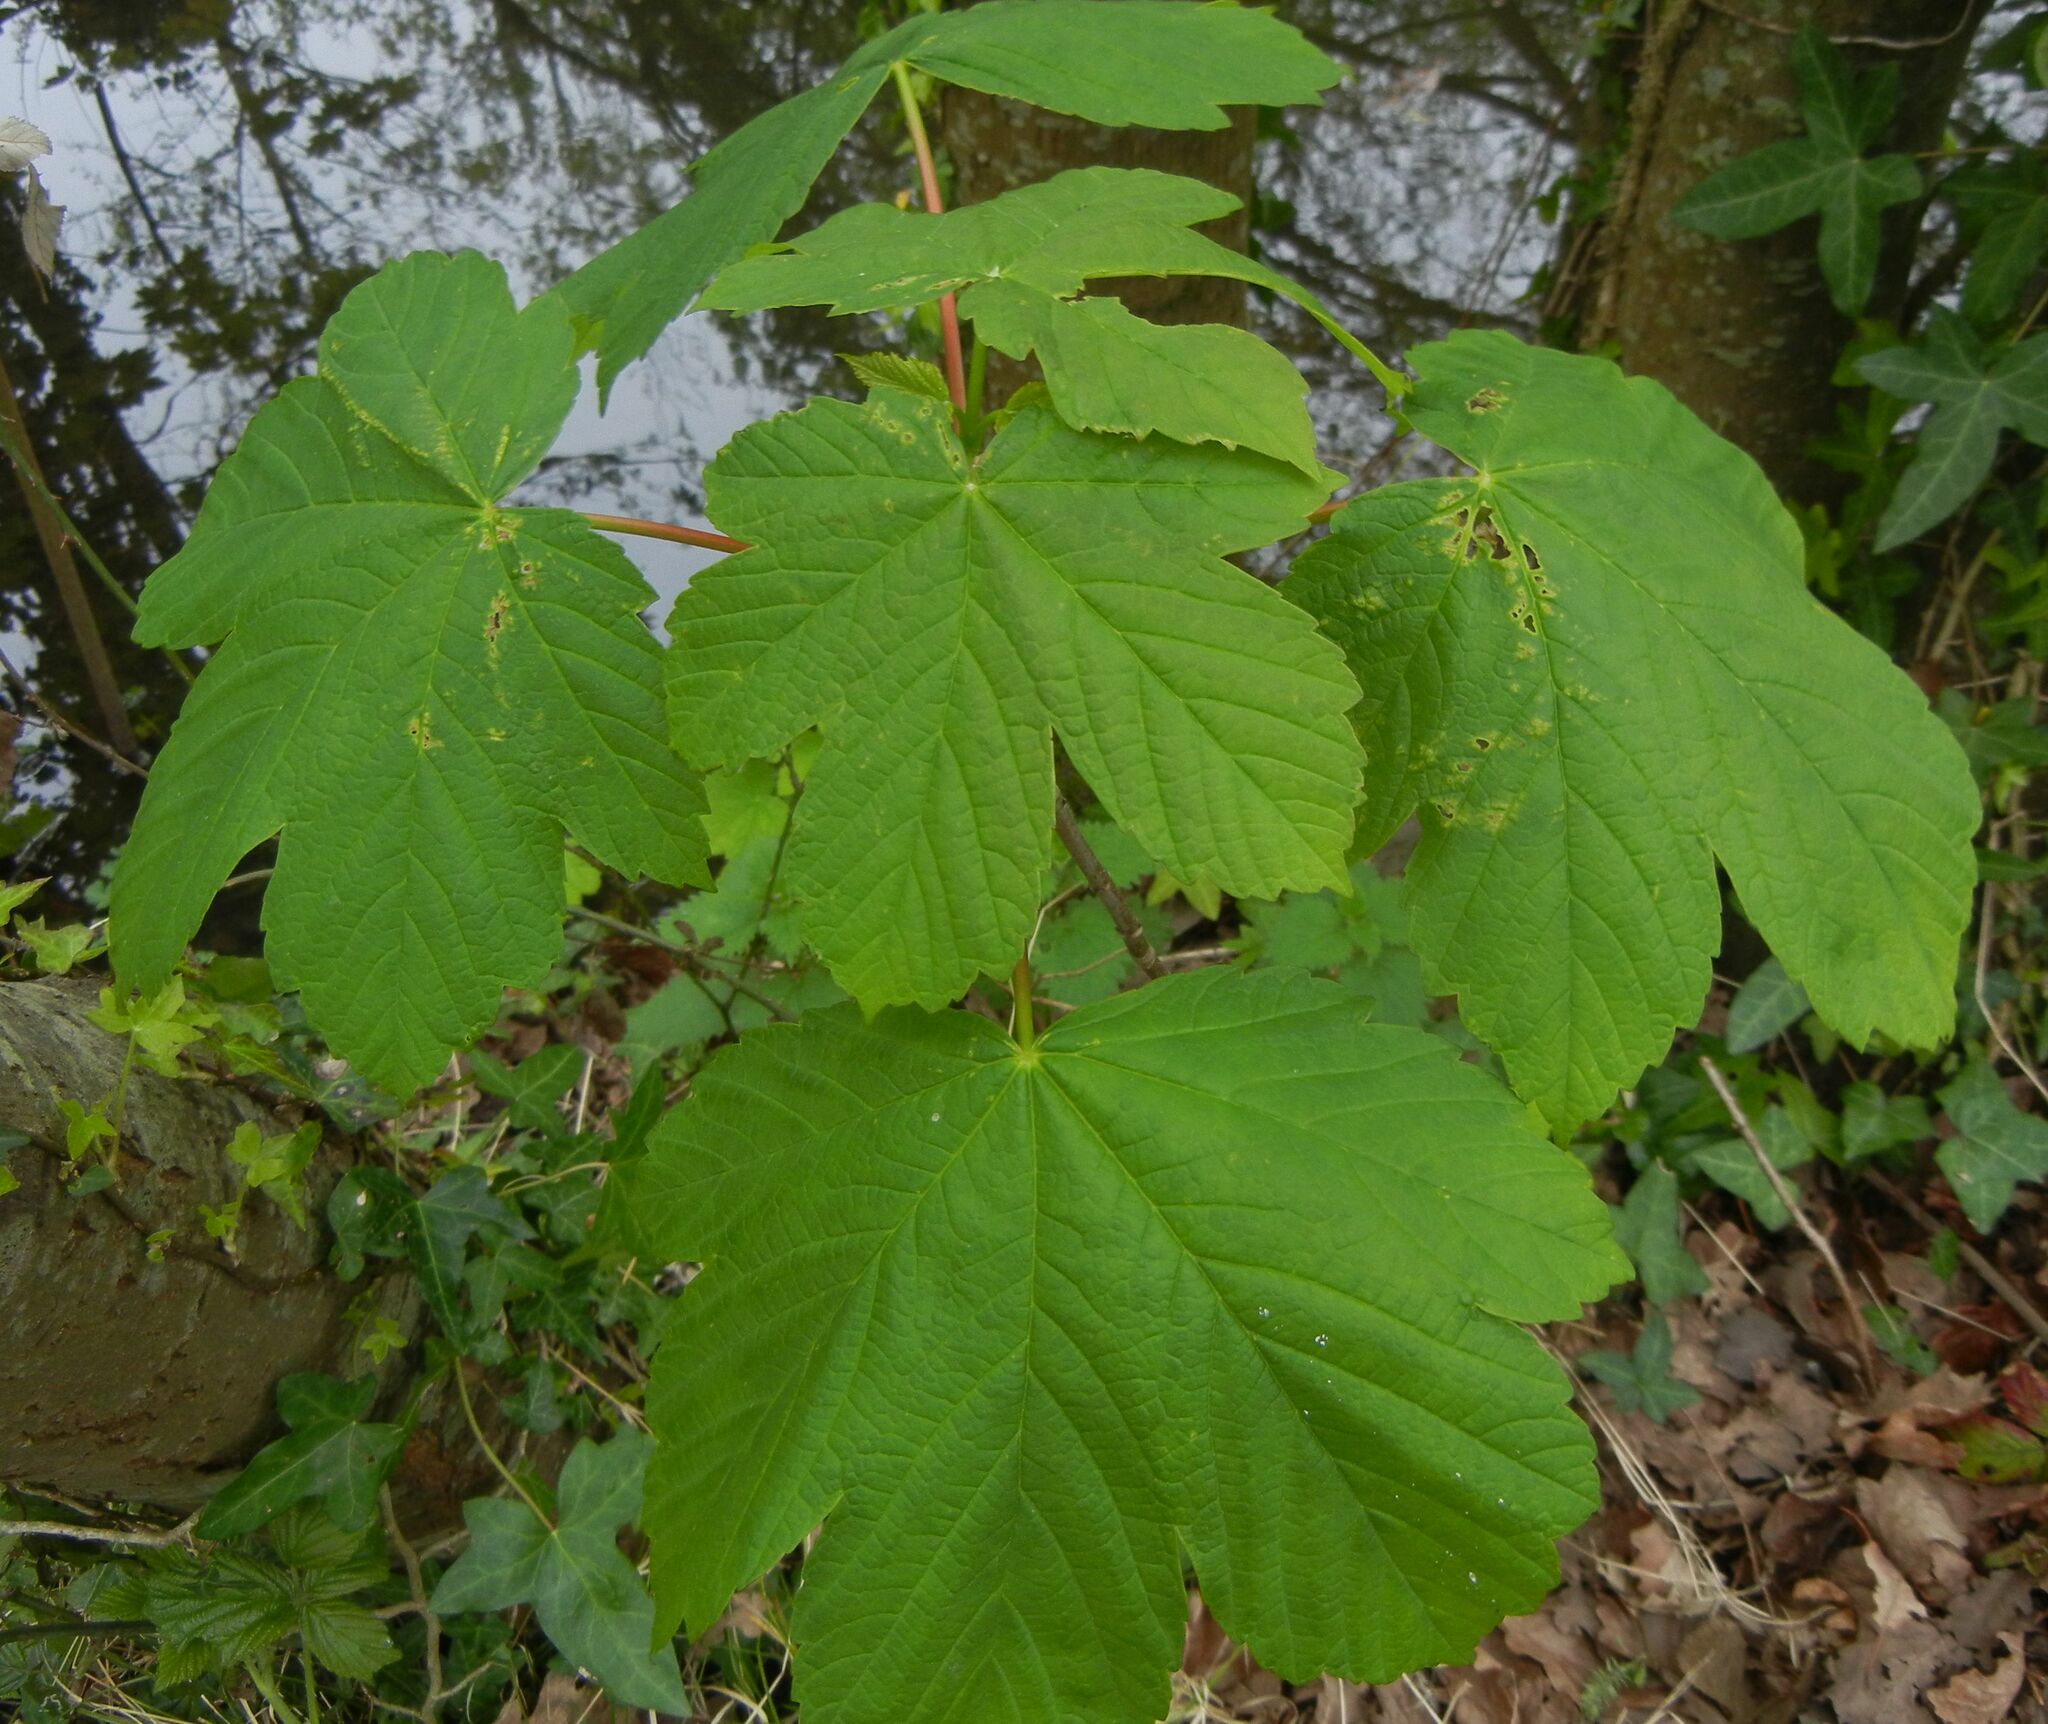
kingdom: Plantae
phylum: Tracheophyta
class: Magnoliopsida
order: Sapindales
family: Sapindaceae
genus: Acer
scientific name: Acer pseudoplatanus
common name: Sycamore
